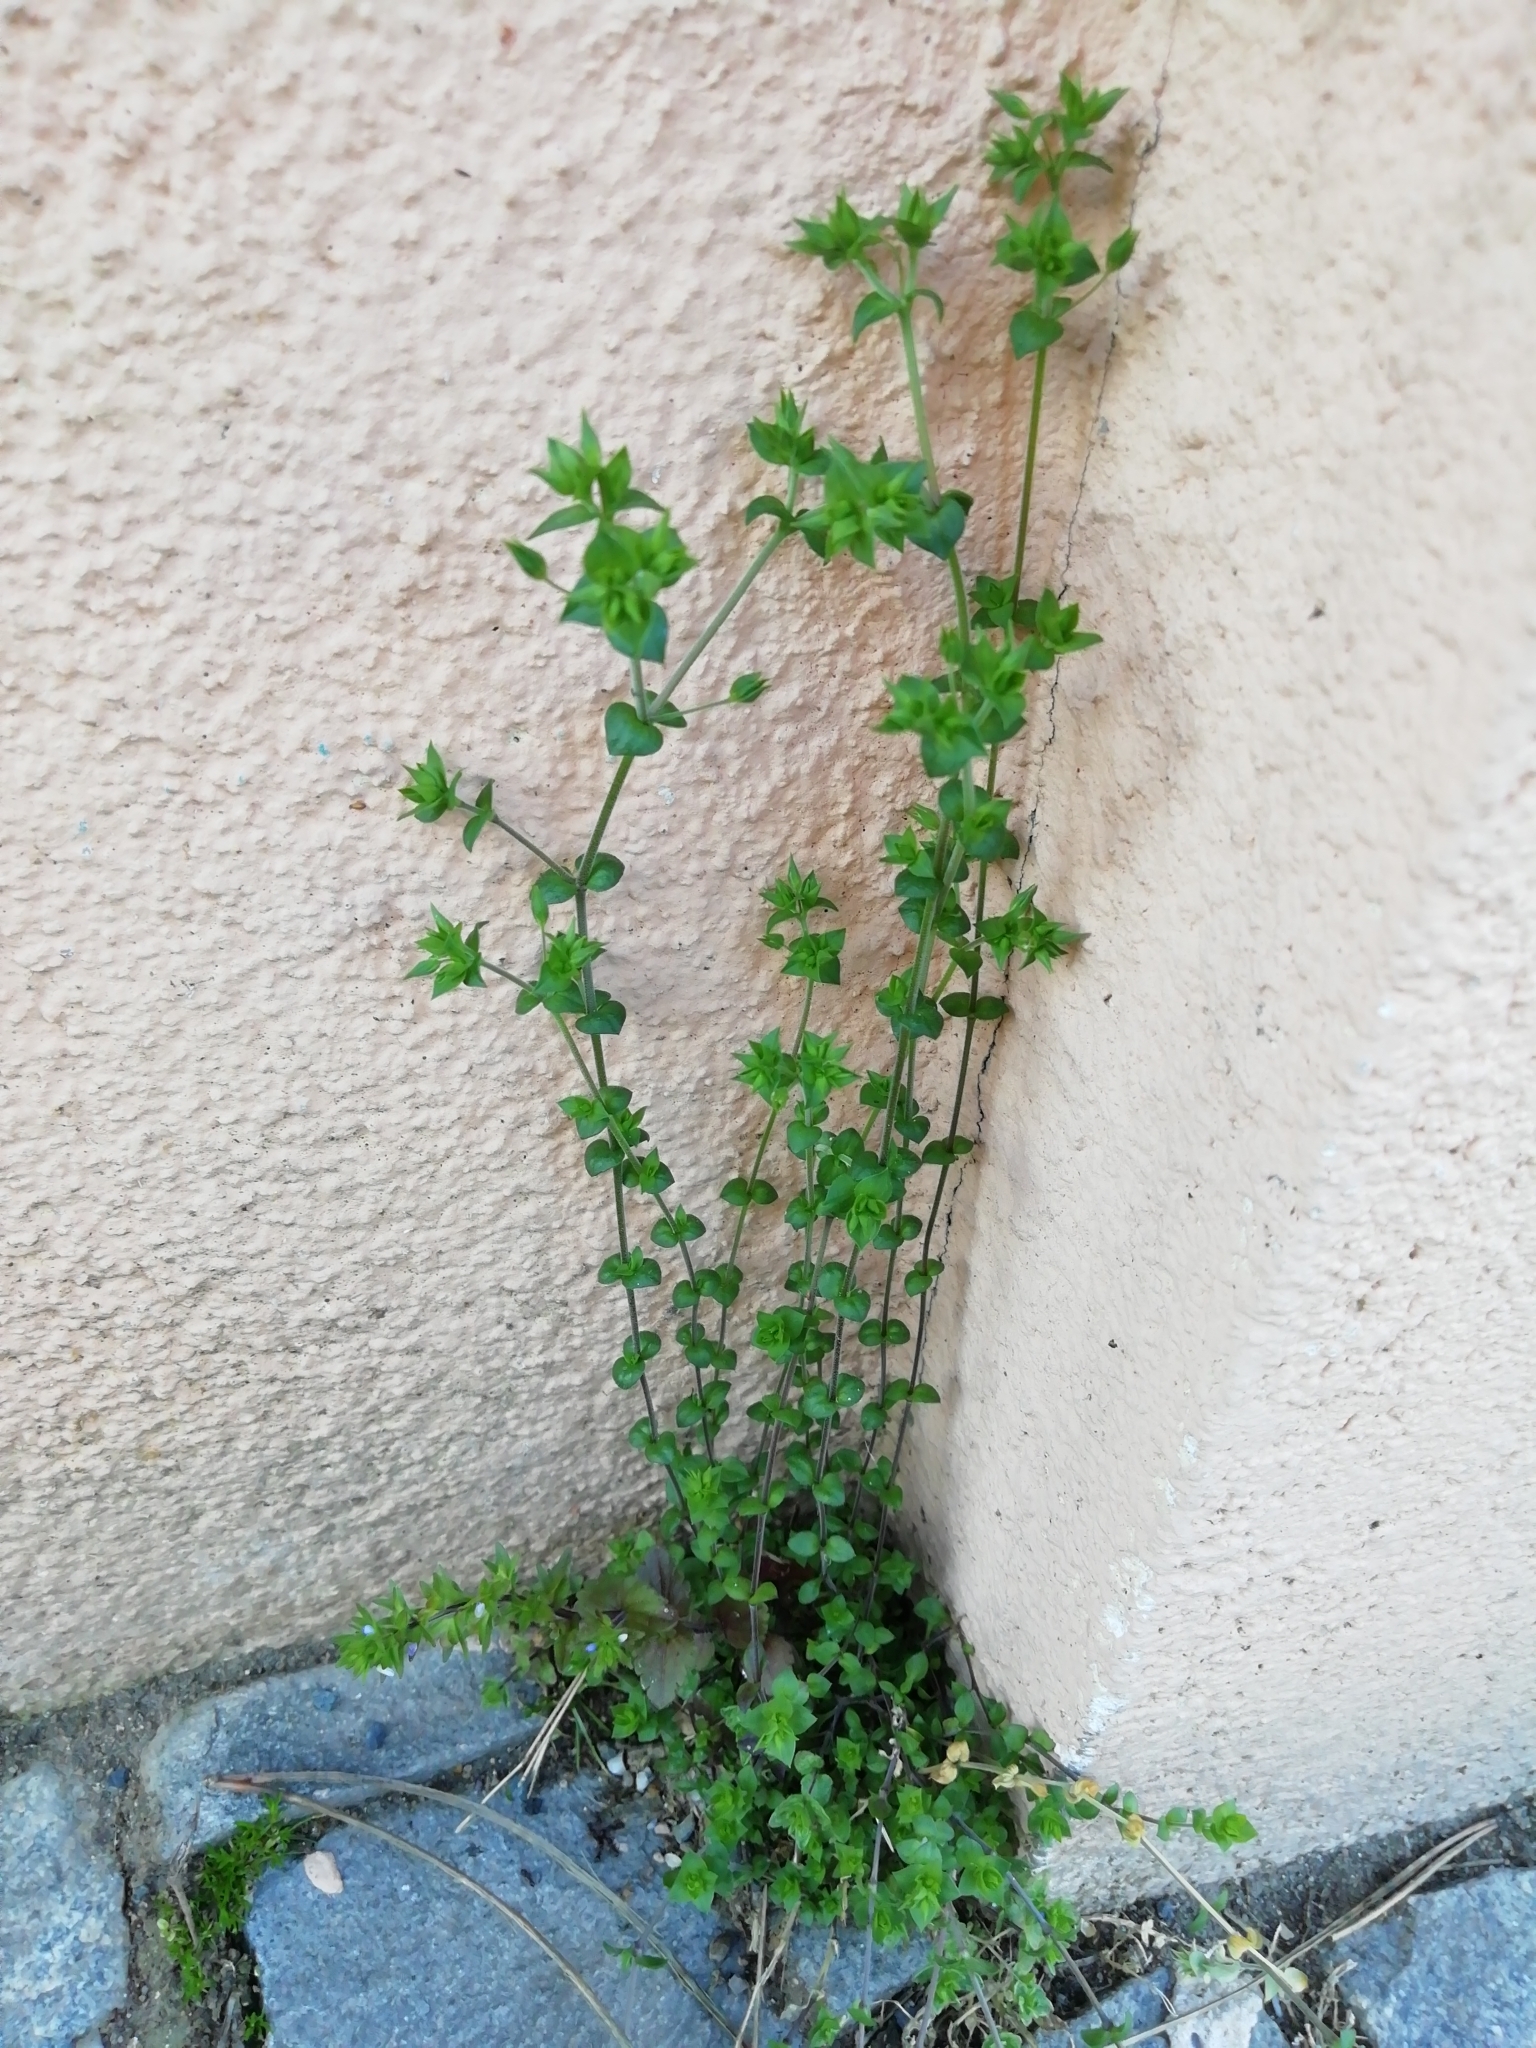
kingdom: Plantae
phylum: Tracheophyta
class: Magnoliopsida
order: Caryophyllales
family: Caryophyllaceae
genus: Arenaria
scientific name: Arenaria serpyllifolia
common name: Thyme-leaved sandwort
